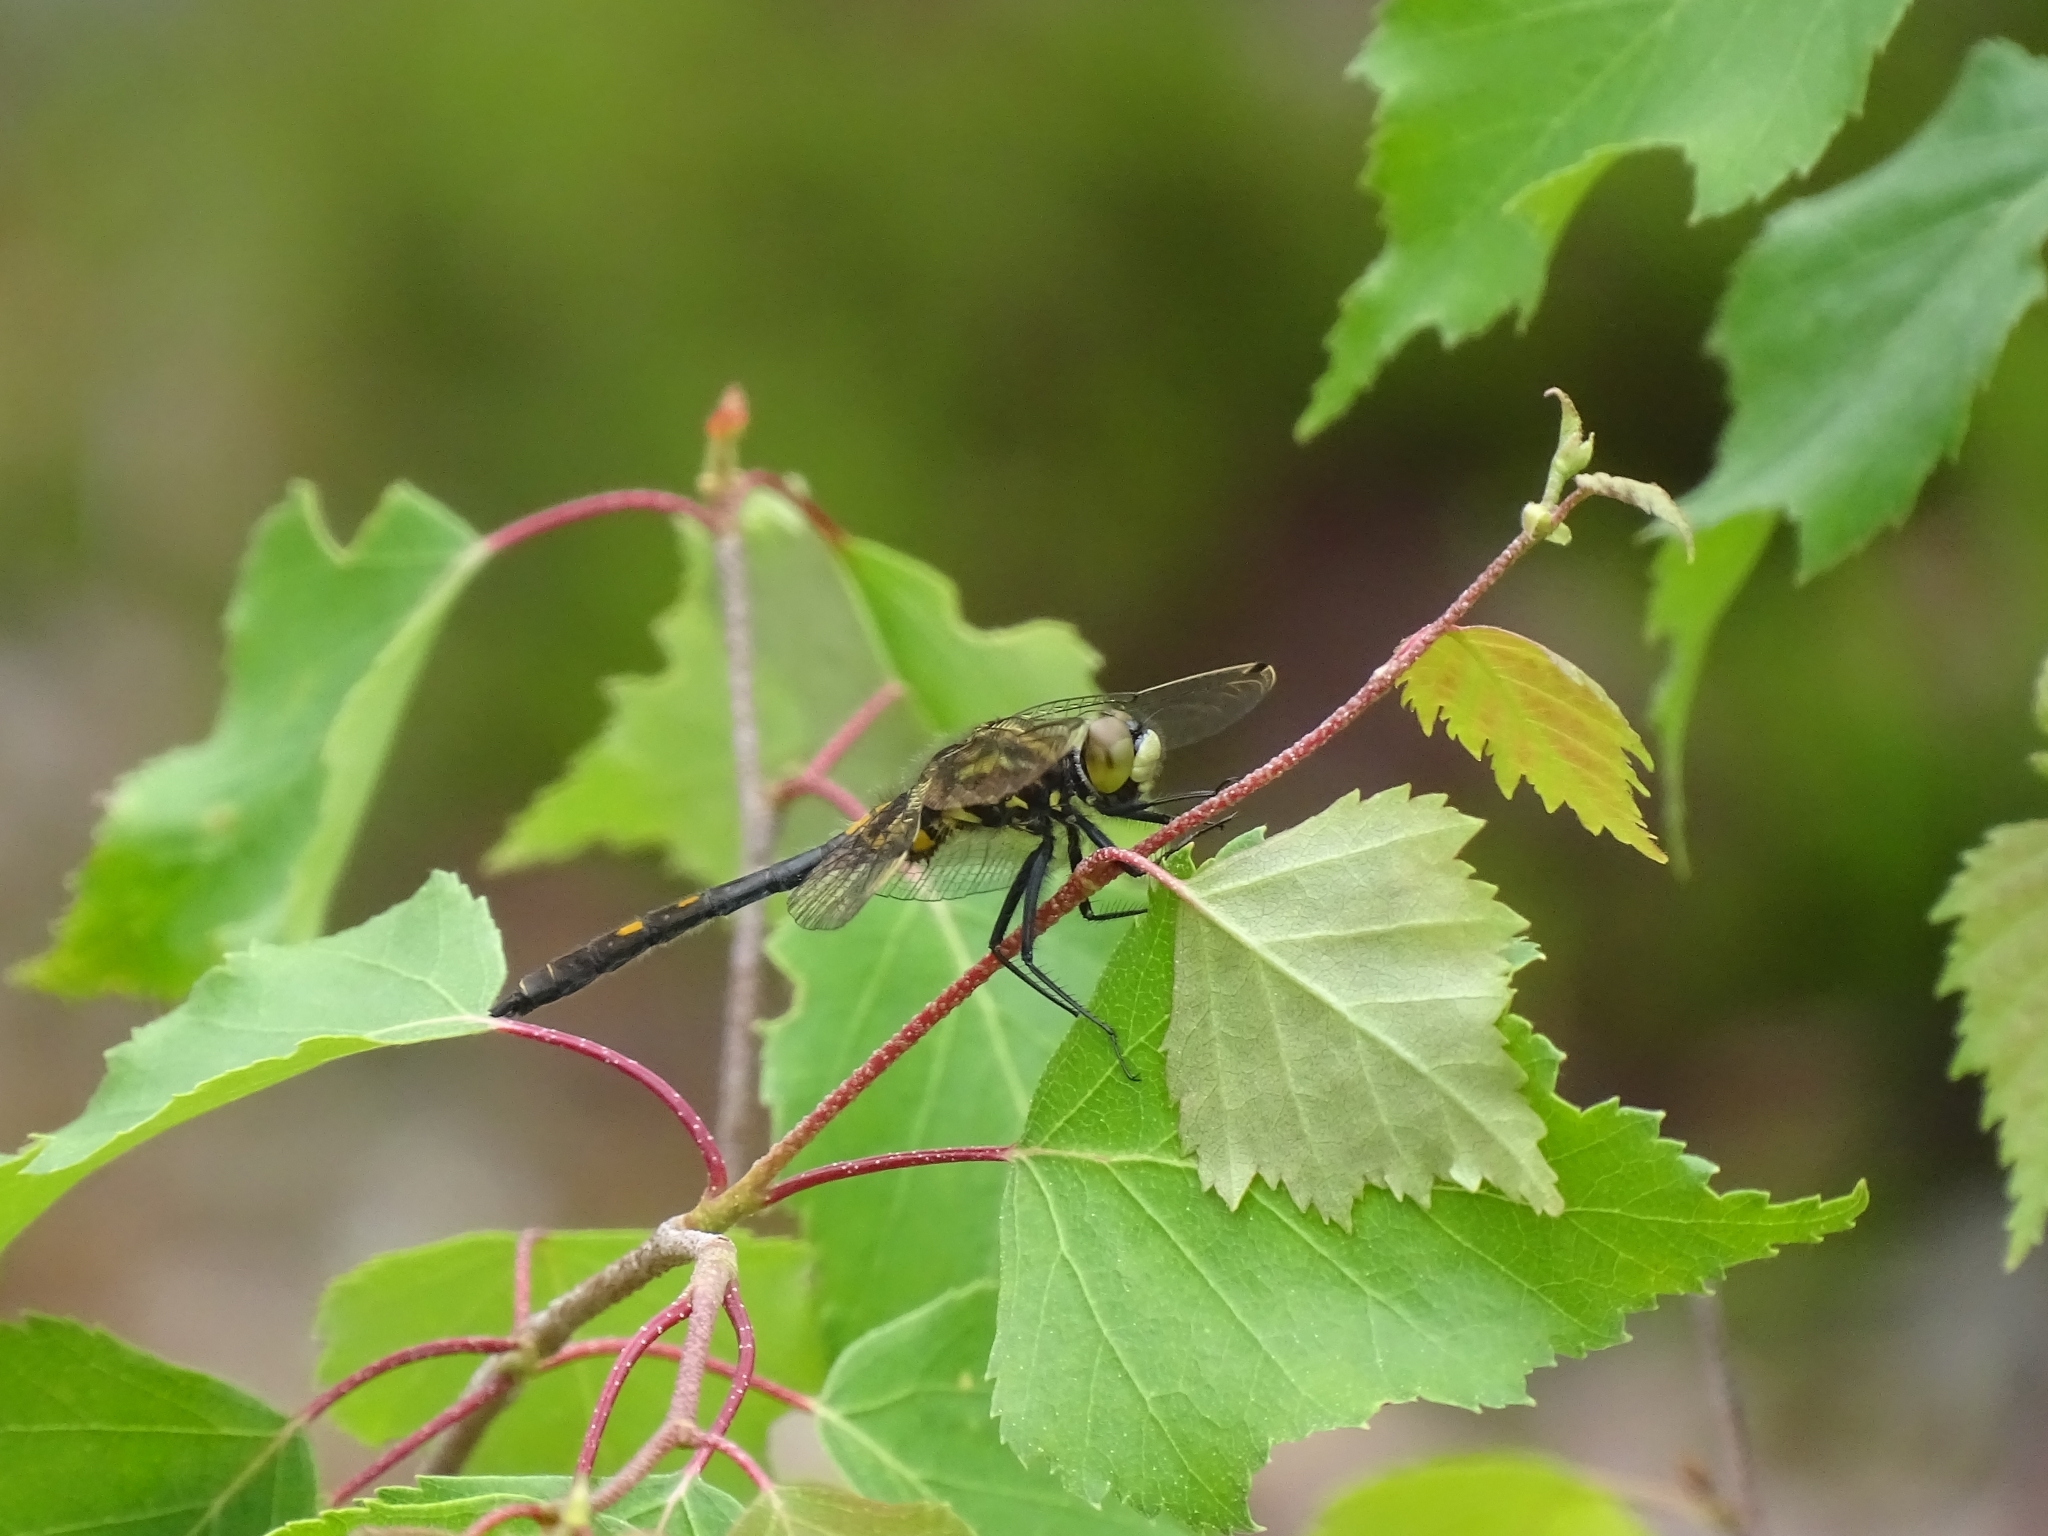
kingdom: Animalia
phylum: Arthropoda
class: Insecta
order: Odonata
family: Libellulidae
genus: Leucorrhinia
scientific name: Leucorrhinia dubia
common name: White-faced darter
